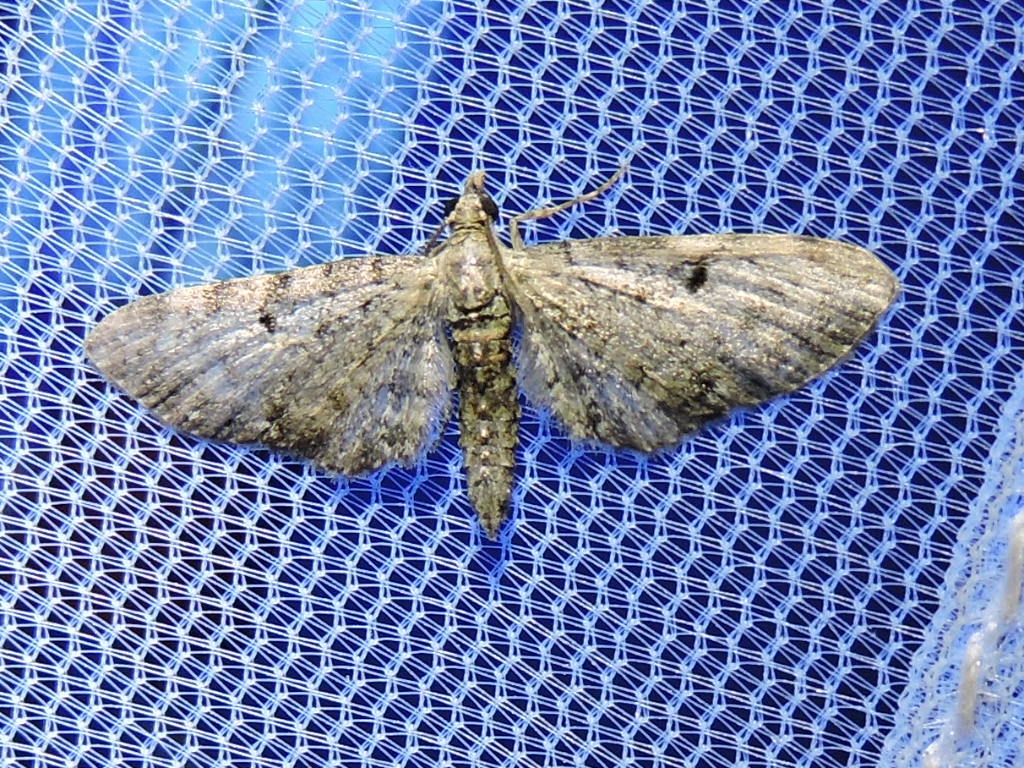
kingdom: Animalia
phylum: Arthropoda
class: Insecta
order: Lepidoptera
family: Geometridae
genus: Eupithecia
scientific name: Eupithecia miserulata
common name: Common eupithecia
